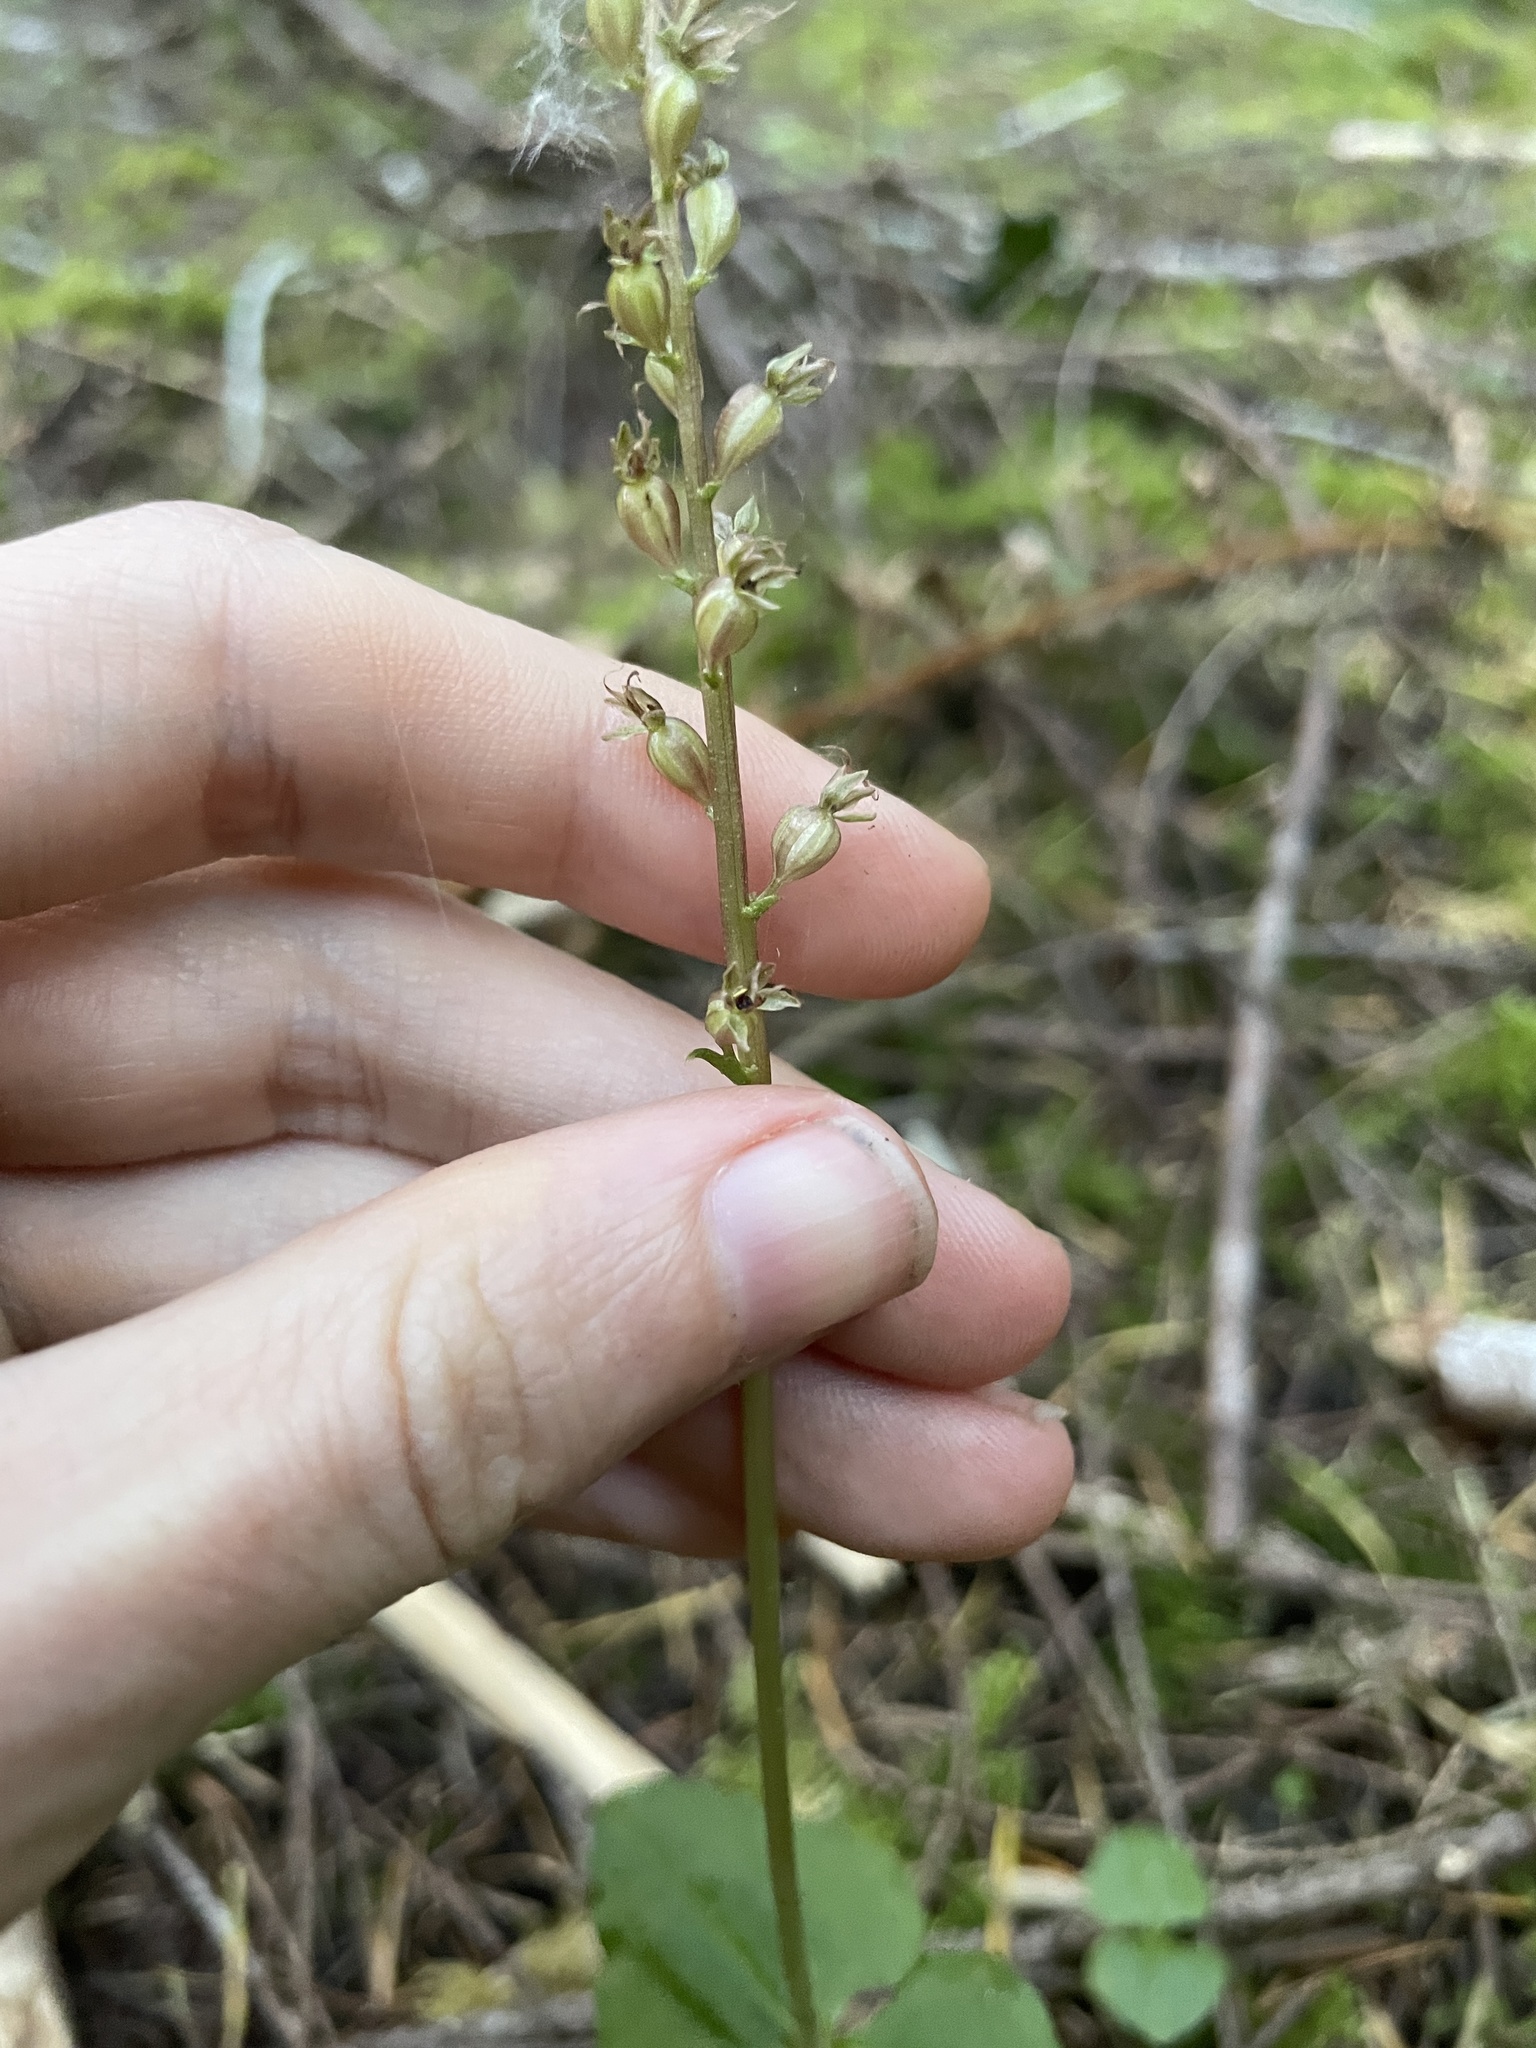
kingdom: Plantae
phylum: Tracheophyta
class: Liliopsida
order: Asparagales
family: Orchidaceae
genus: Neottia
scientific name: Neottia cordata
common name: Lesser twayblade
